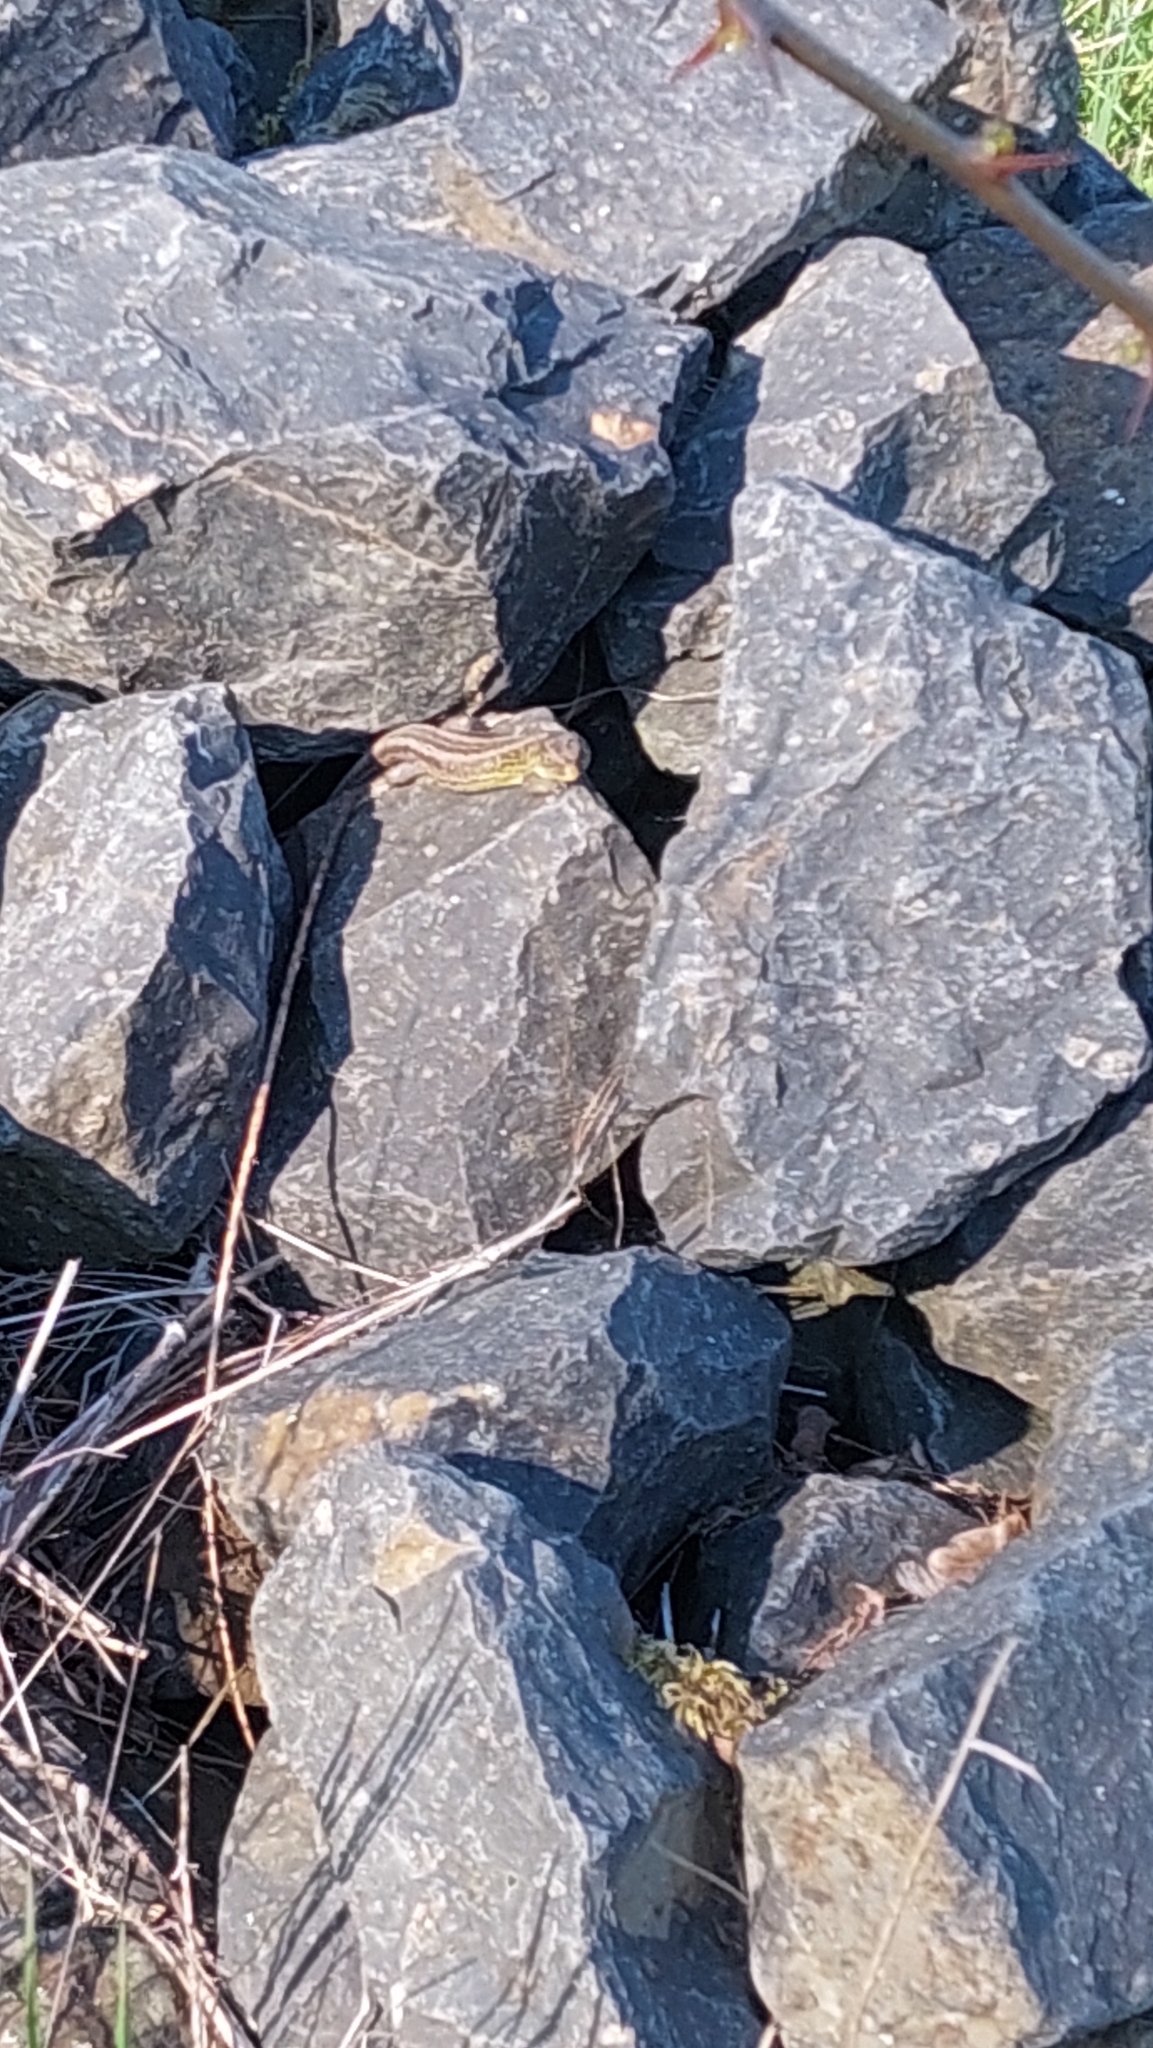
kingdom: Animalia
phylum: Chordata
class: Squamata
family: Lacertidae
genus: Lacerta
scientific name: Lacerta agilis
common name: Sand lizard
